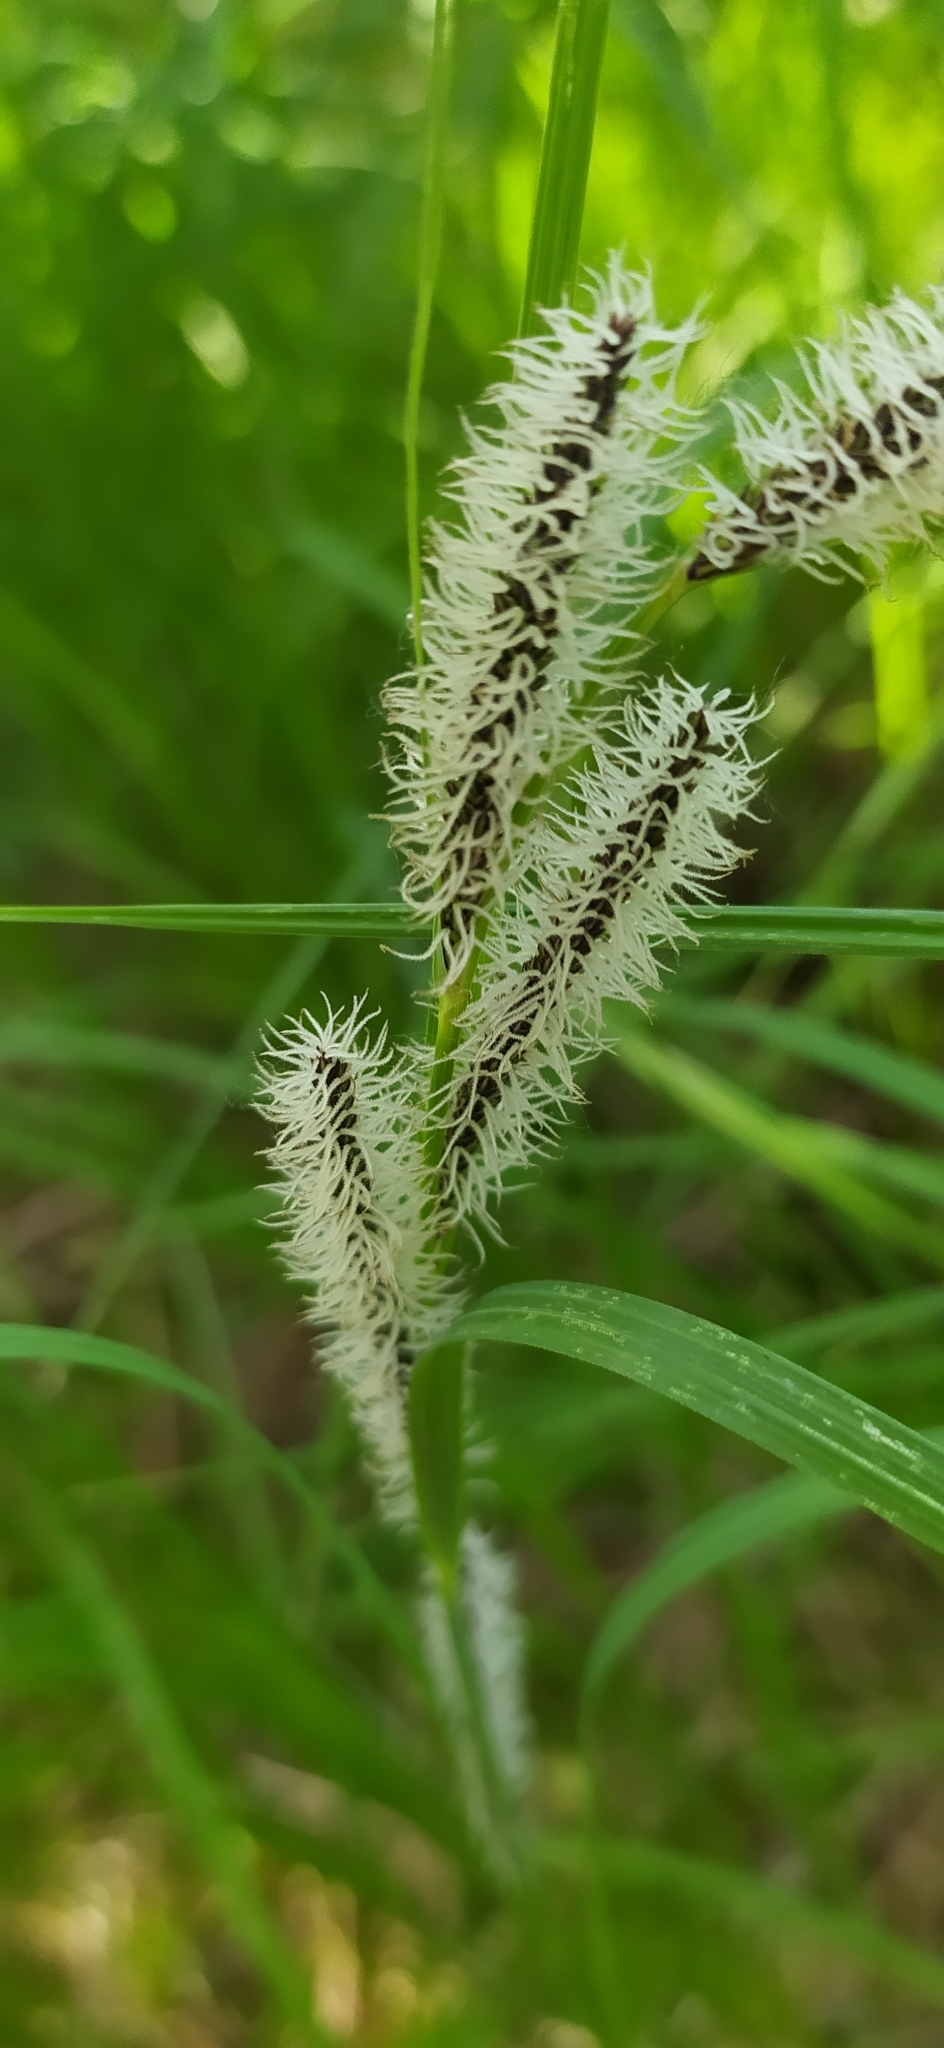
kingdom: Plantae
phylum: Tracheophyta
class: Liliopsida
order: Poales
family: Cyperaceae
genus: Carex
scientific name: Carex utriculata
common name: Beaked sedge
